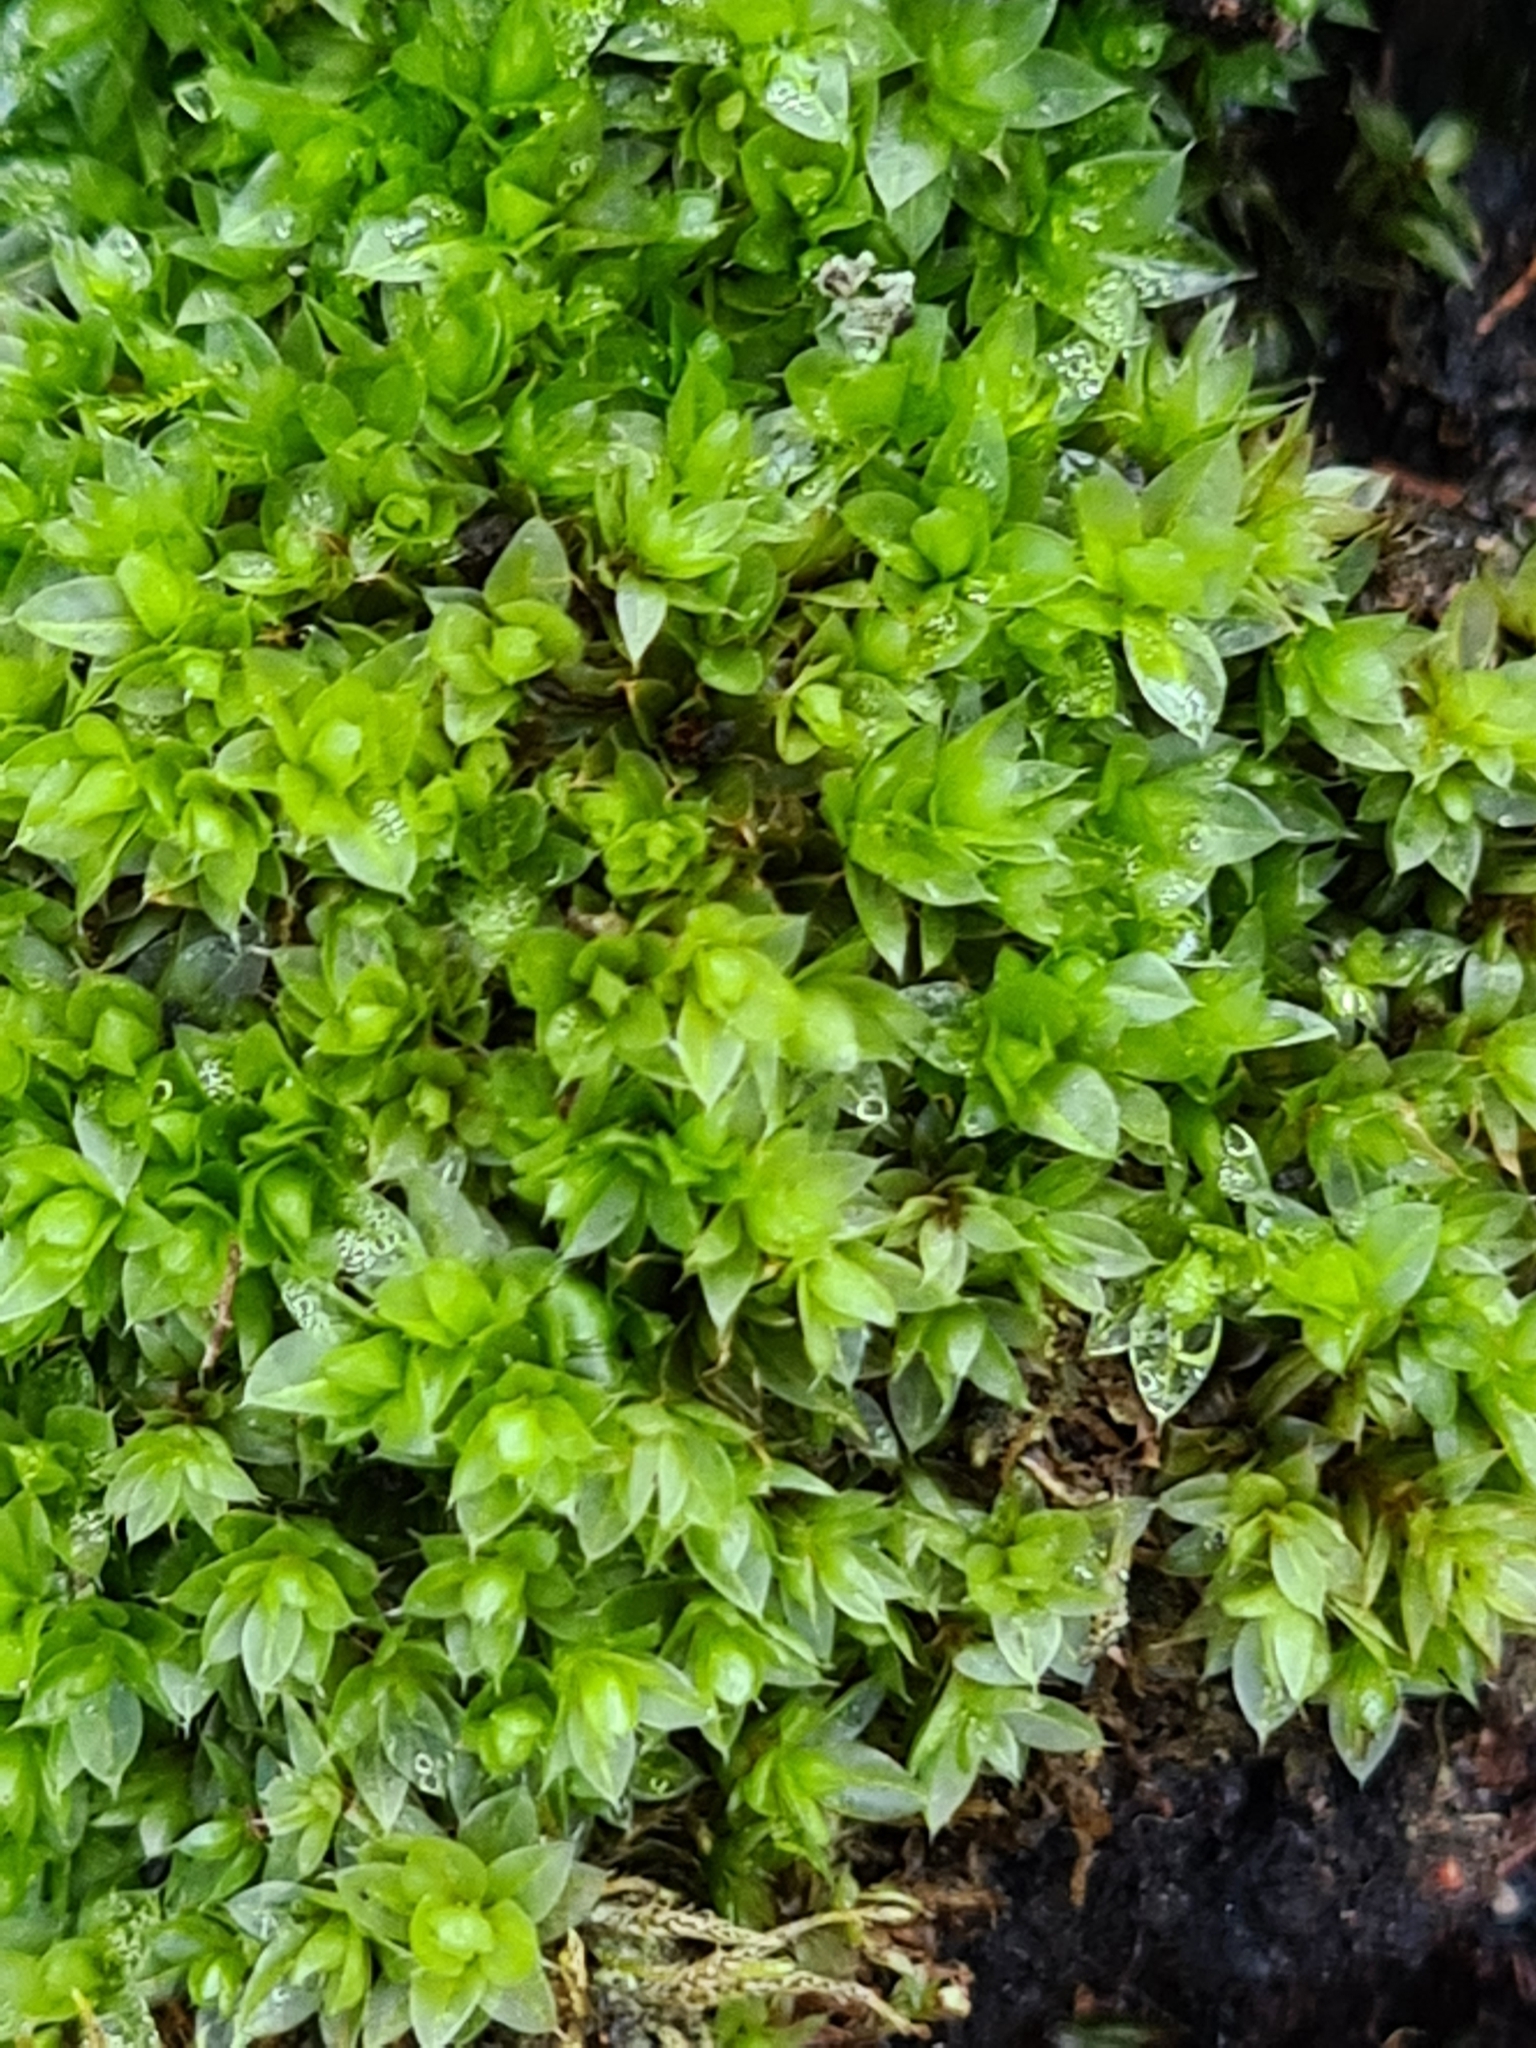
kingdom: Plantae
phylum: Bryophyta
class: Bryopsida
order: Bryales
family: Bryaceae
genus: Rosulabryum
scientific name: Rosulabryum moravicum
